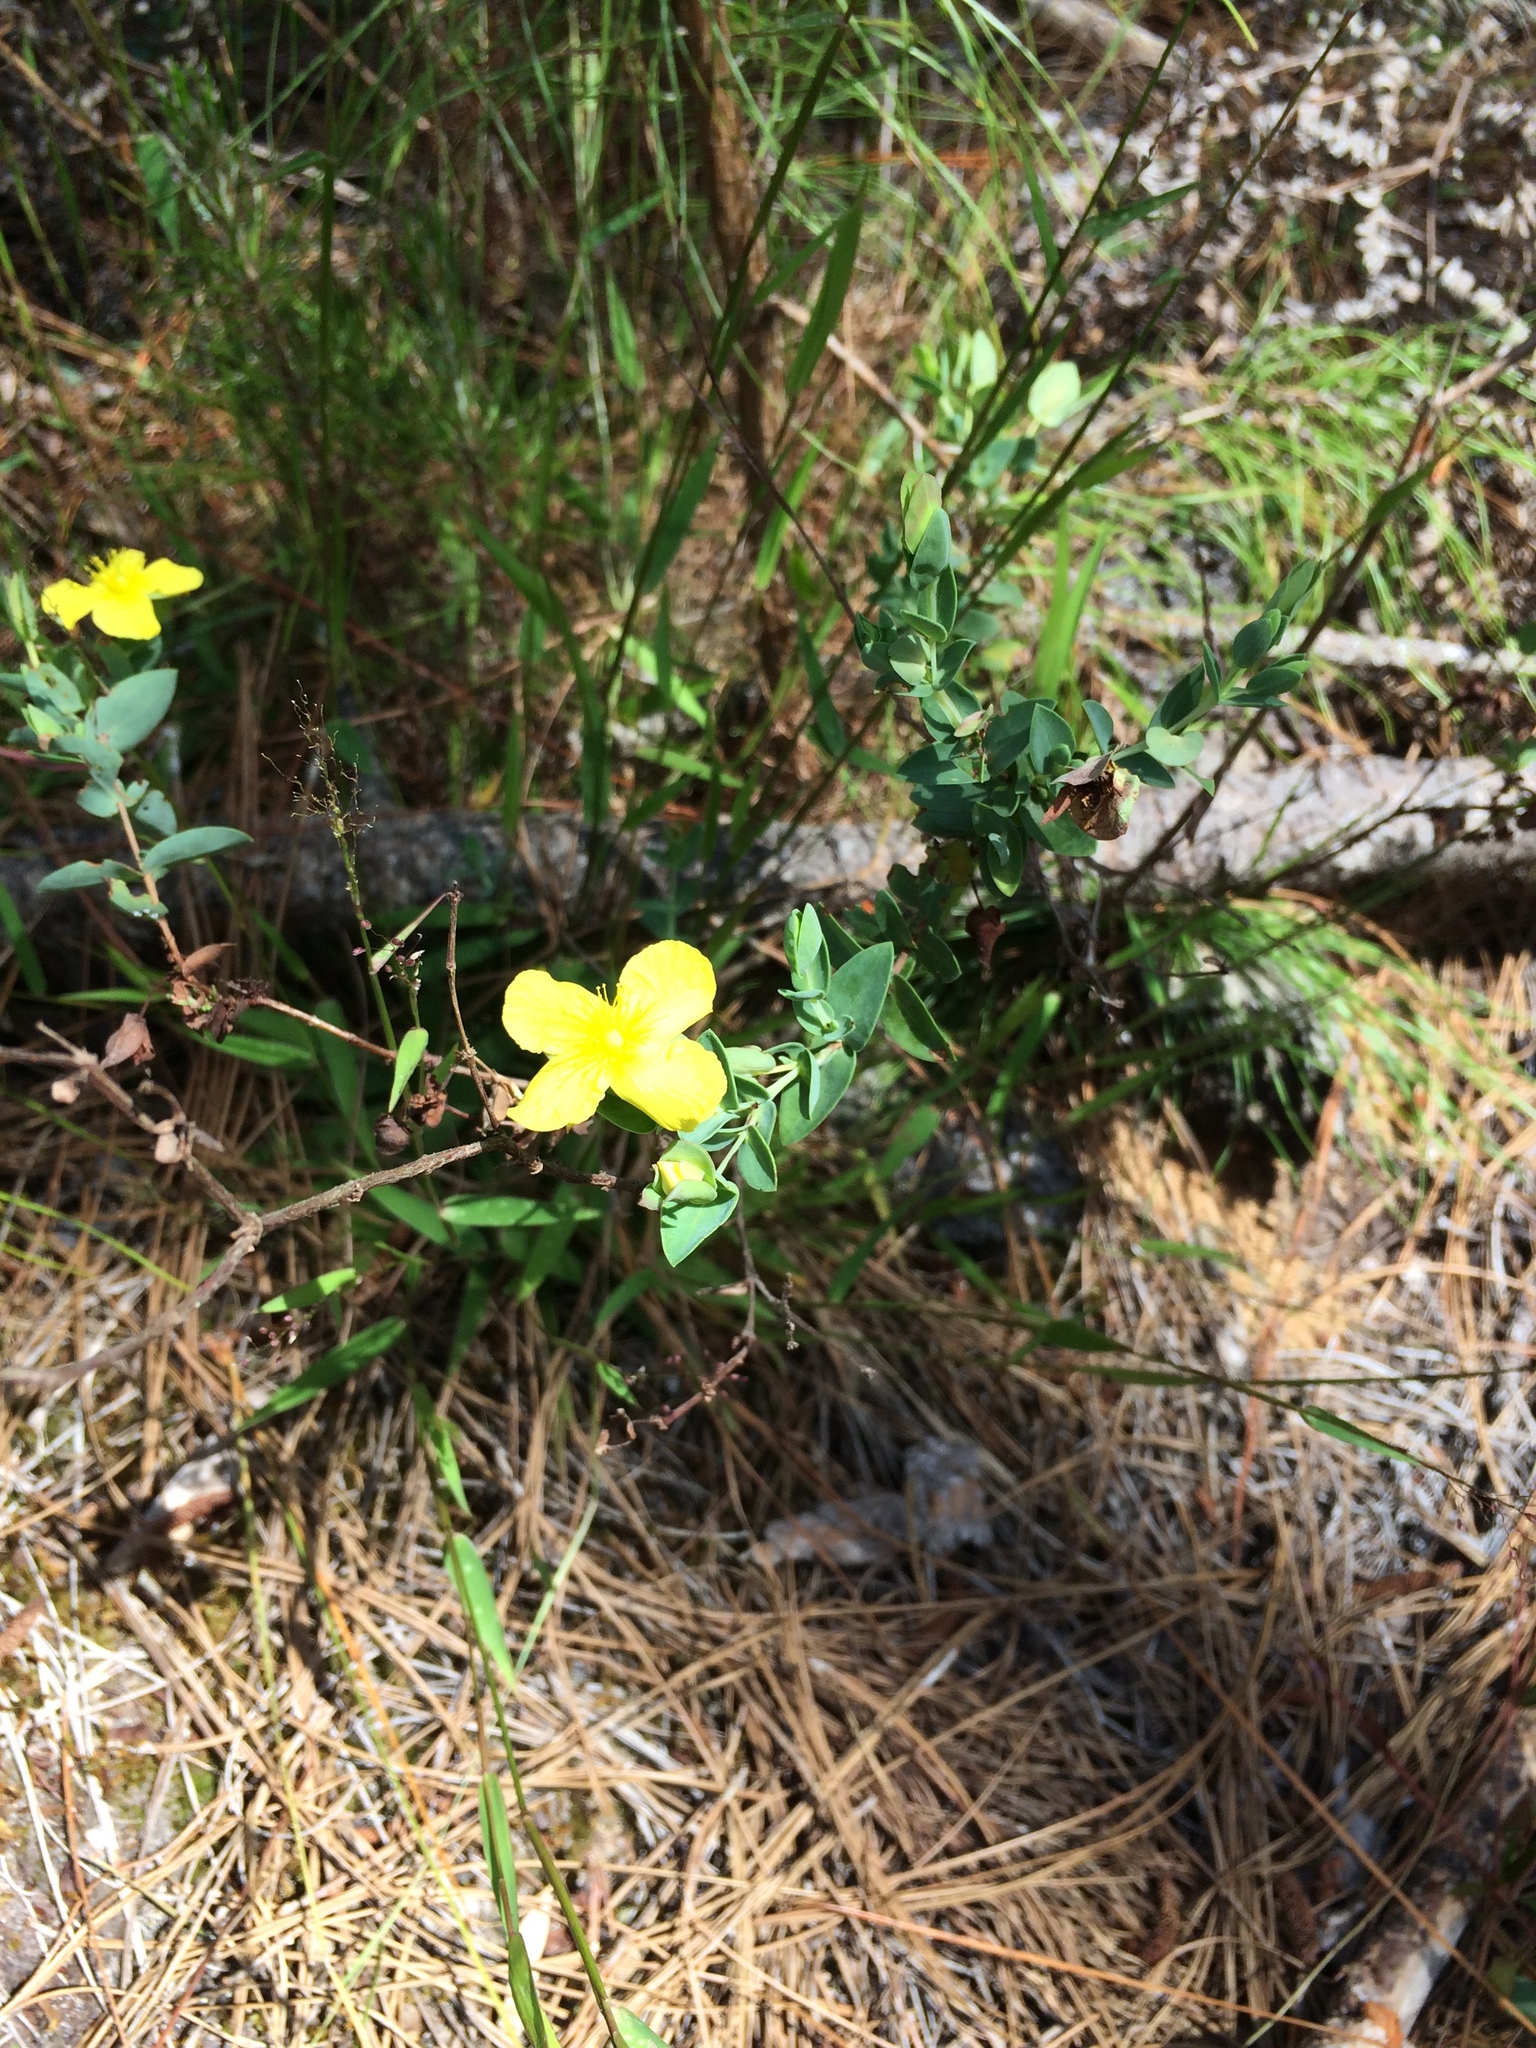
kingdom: Plantae
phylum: Tracheophyta
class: Magnoliopsida
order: Malpighiales
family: Hypericaceae
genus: Hypericum
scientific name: Hypericum tetrapetalum
